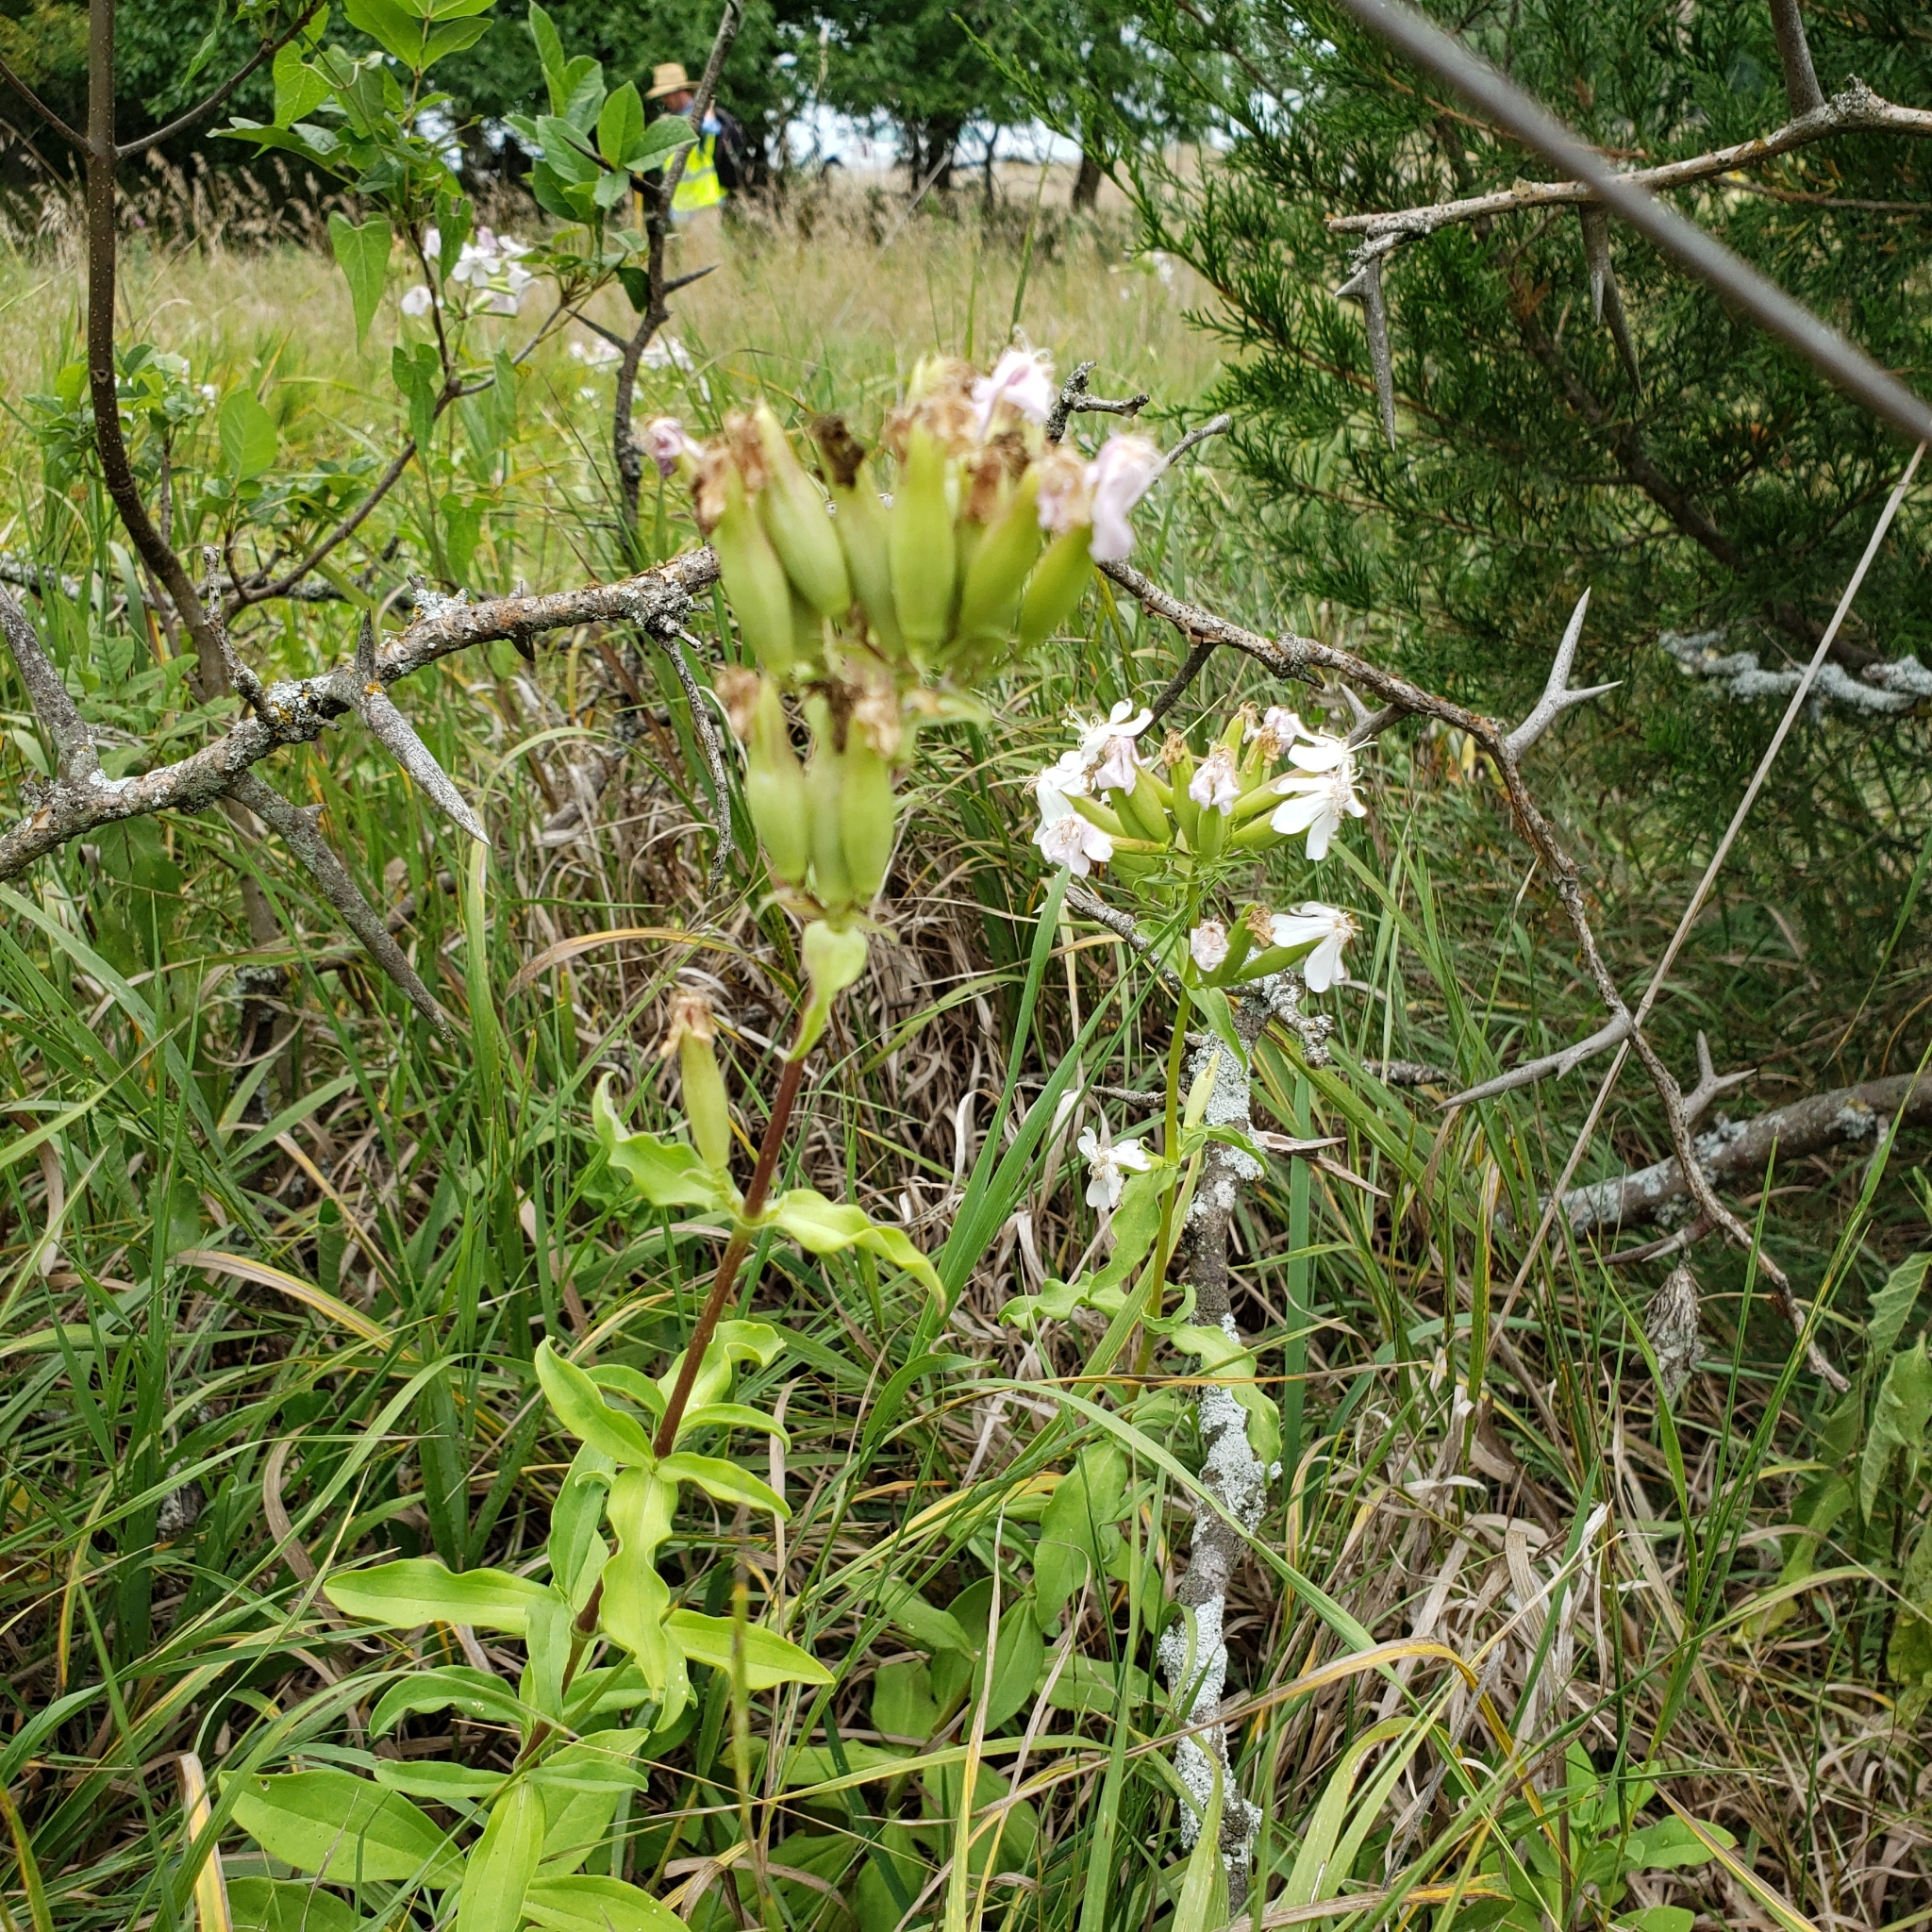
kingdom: Plantae
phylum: Tracheophyta
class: Magnoliopsida
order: Caryophyllales
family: Caryophyllaceae
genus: Saponaria
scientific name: Saponaria officinalis
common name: Soapwort
